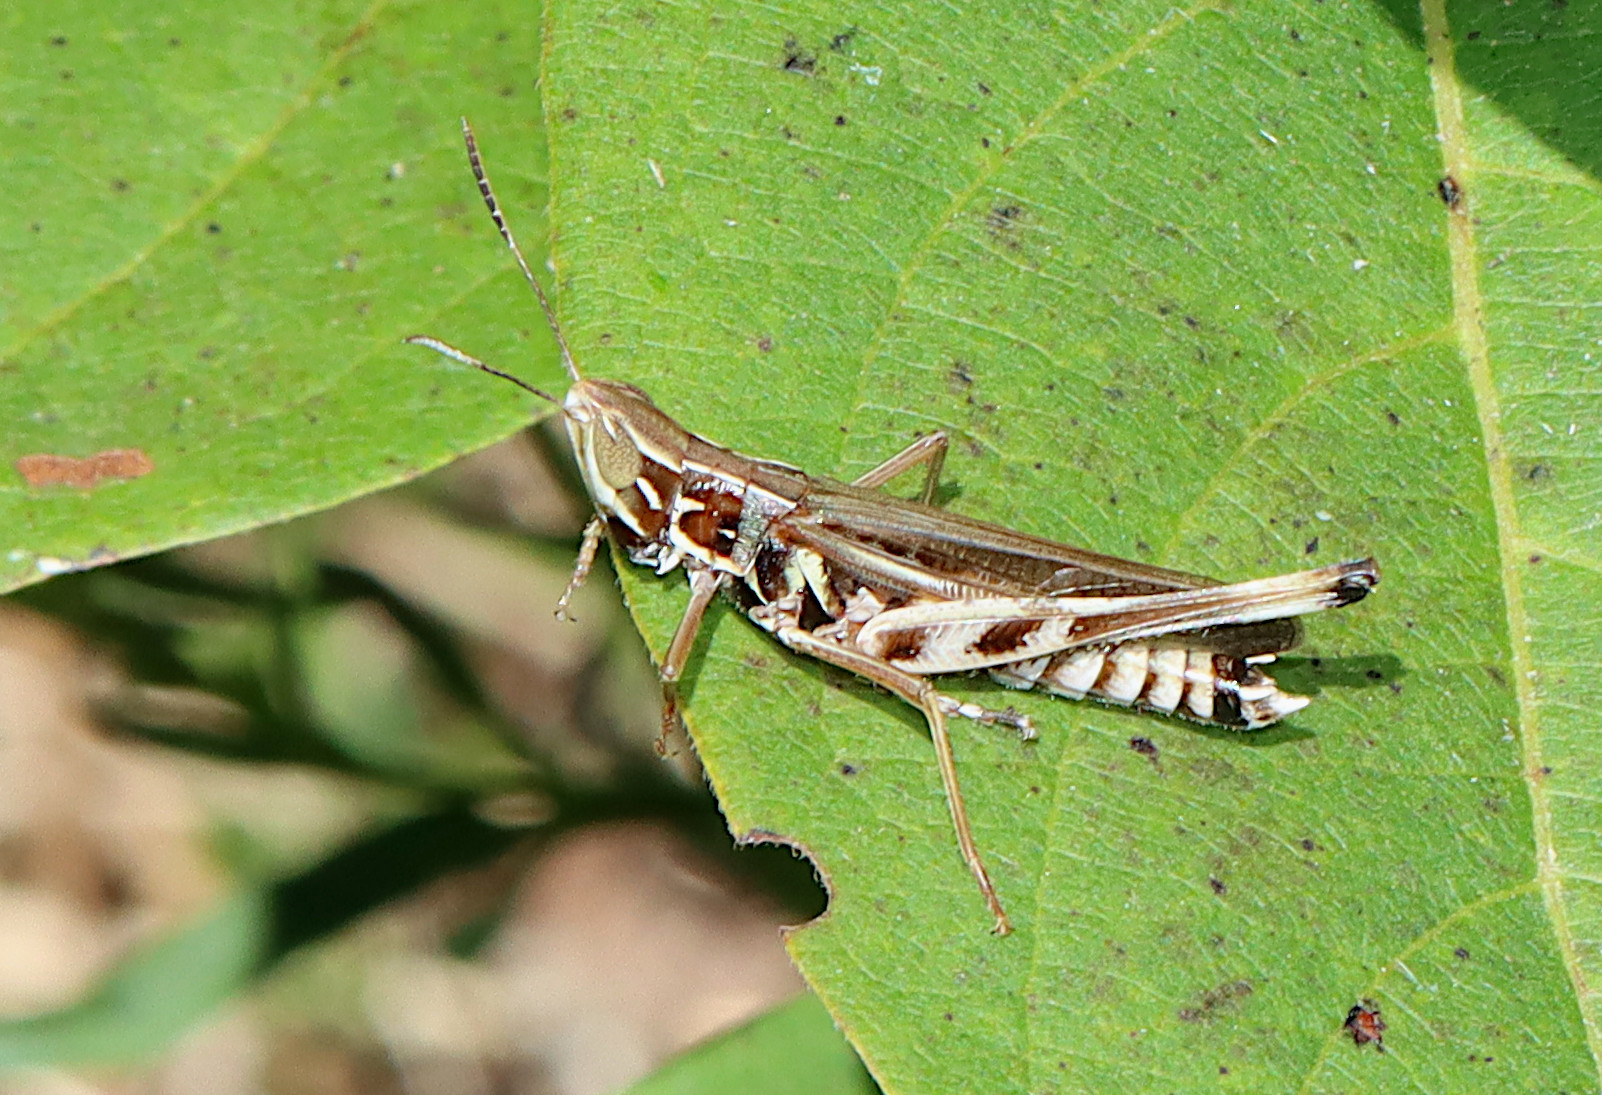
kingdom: Animalia
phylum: Arthropoda
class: Insecta
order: Orthoptera
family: Acrididae
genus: Syrbula
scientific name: Syrbula admirabilis
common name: Handsome grasshopper
